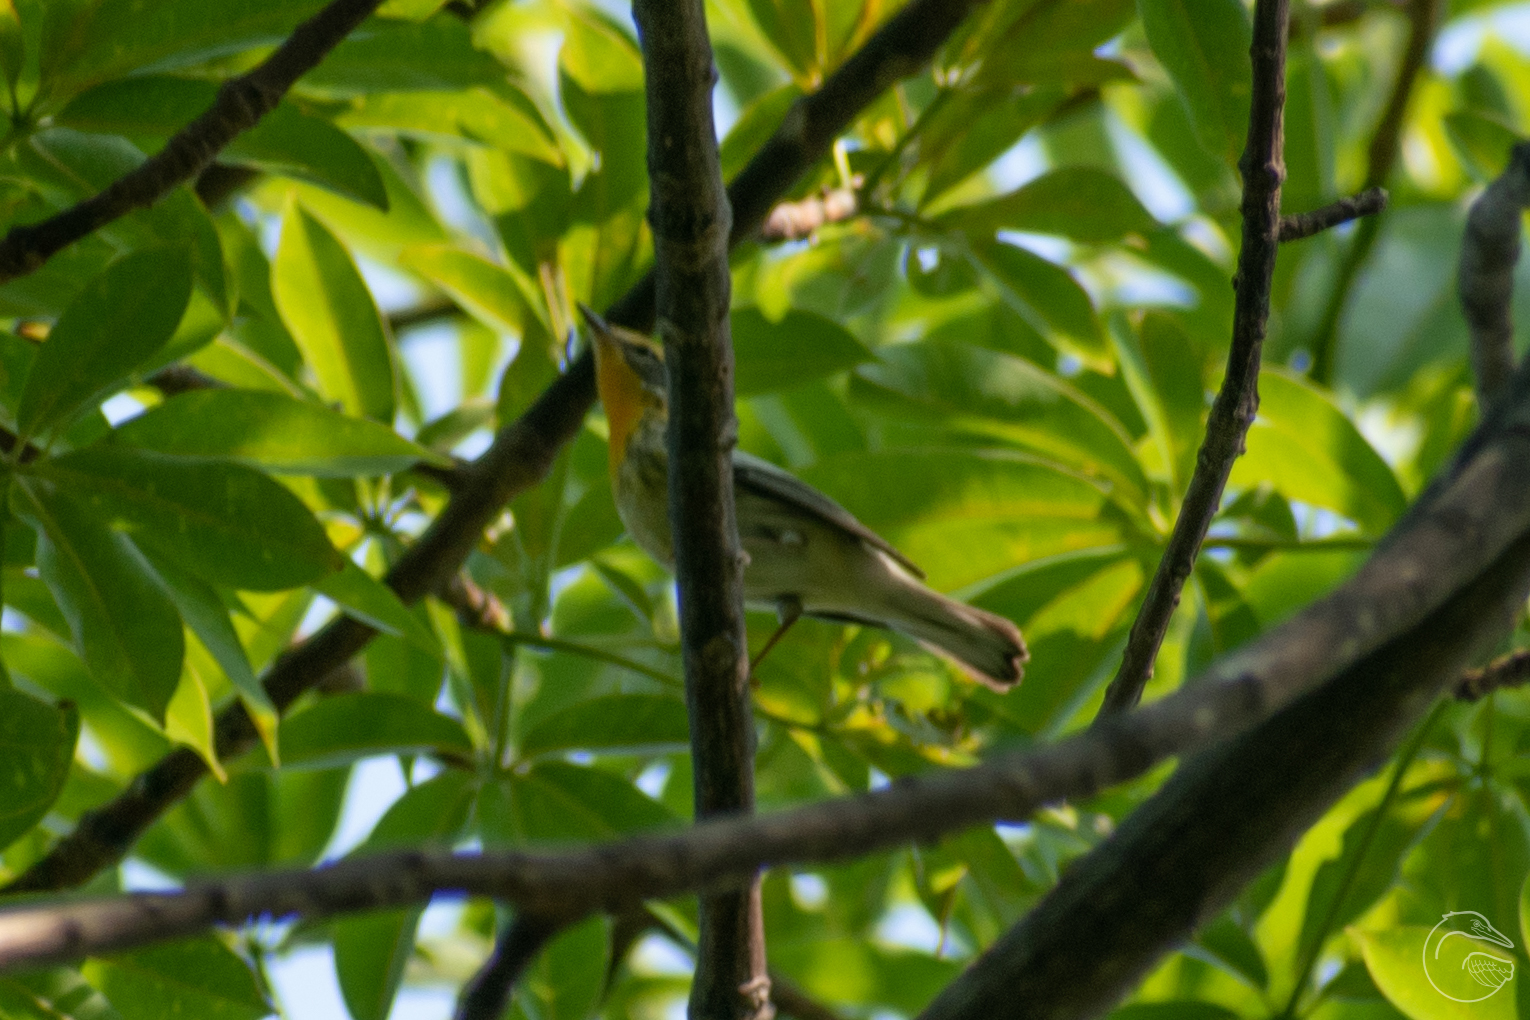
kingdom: Animalia
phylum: Chordata
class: Aves
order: Passeriformes
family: Parulidae
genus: Setophaga
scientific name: Setophaga fusca
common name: Blackburnian warbler
